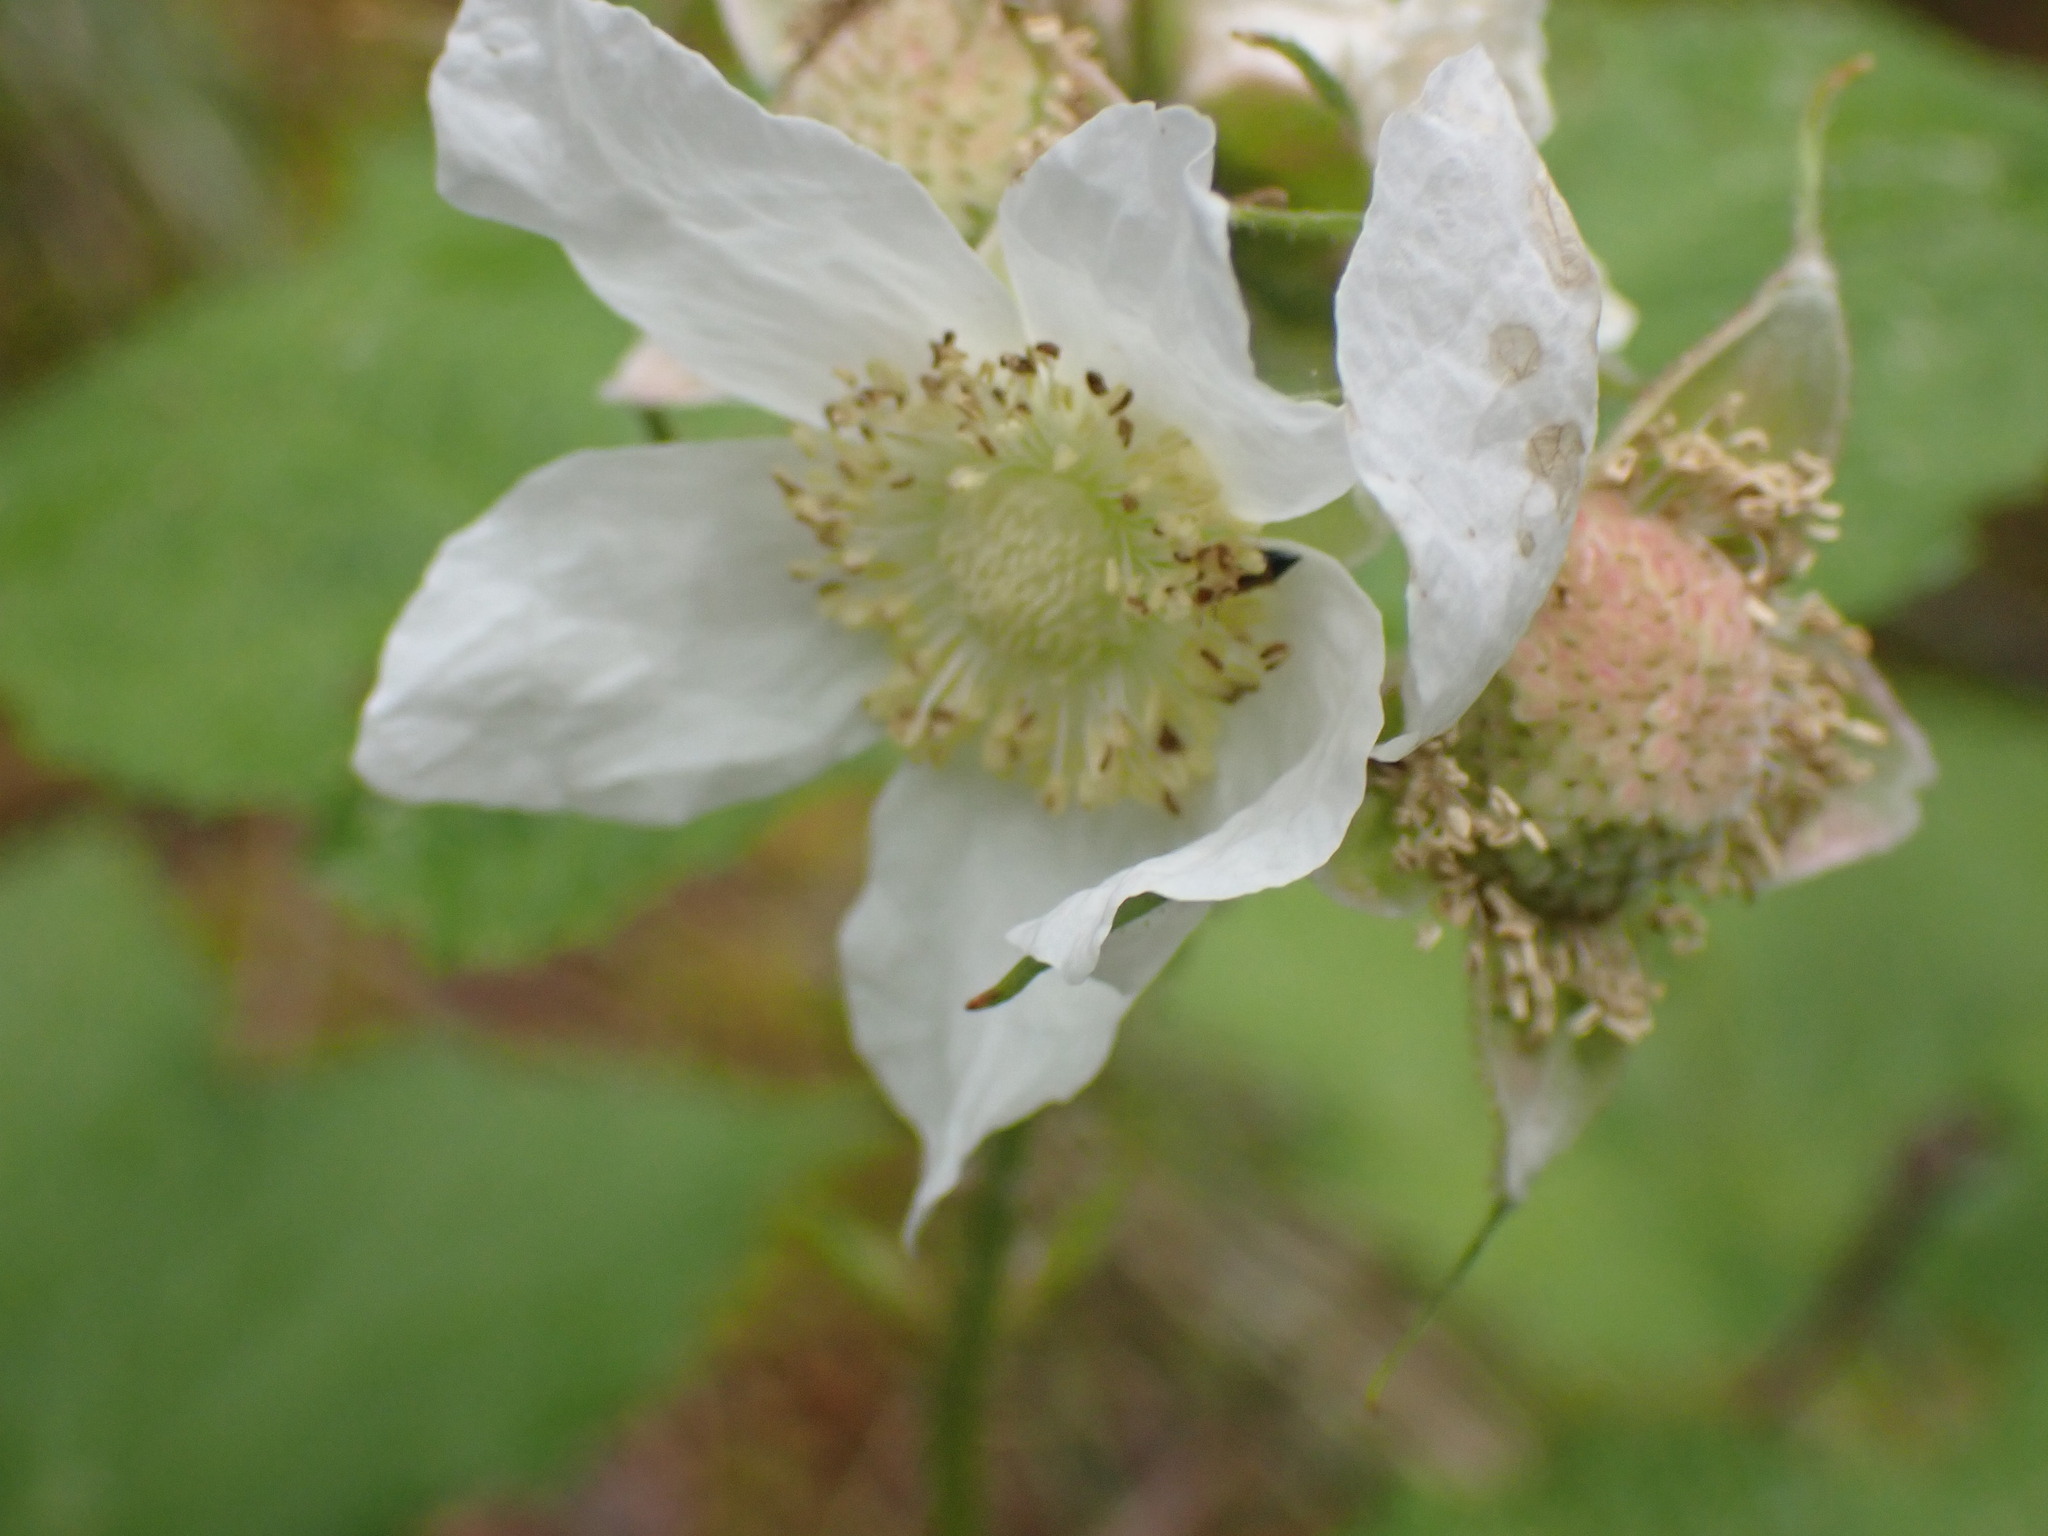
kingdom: Plantae
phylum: Tracheophyta
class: Magnoliopsida
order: Rosales
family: Rosaceae
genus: Rubus
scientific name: Rubus parviflorus
